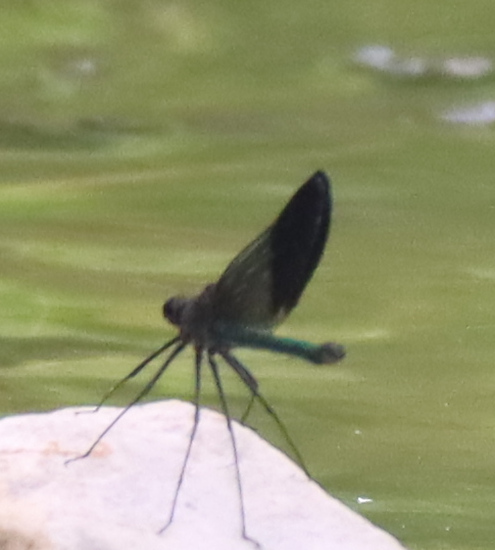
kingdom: Animalia
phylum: Arthropoda
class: Insecta
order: Odonata
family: Calopterygidae
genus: Calopteryx
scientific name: Calopteryx aequabilis
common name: River jewelwing
